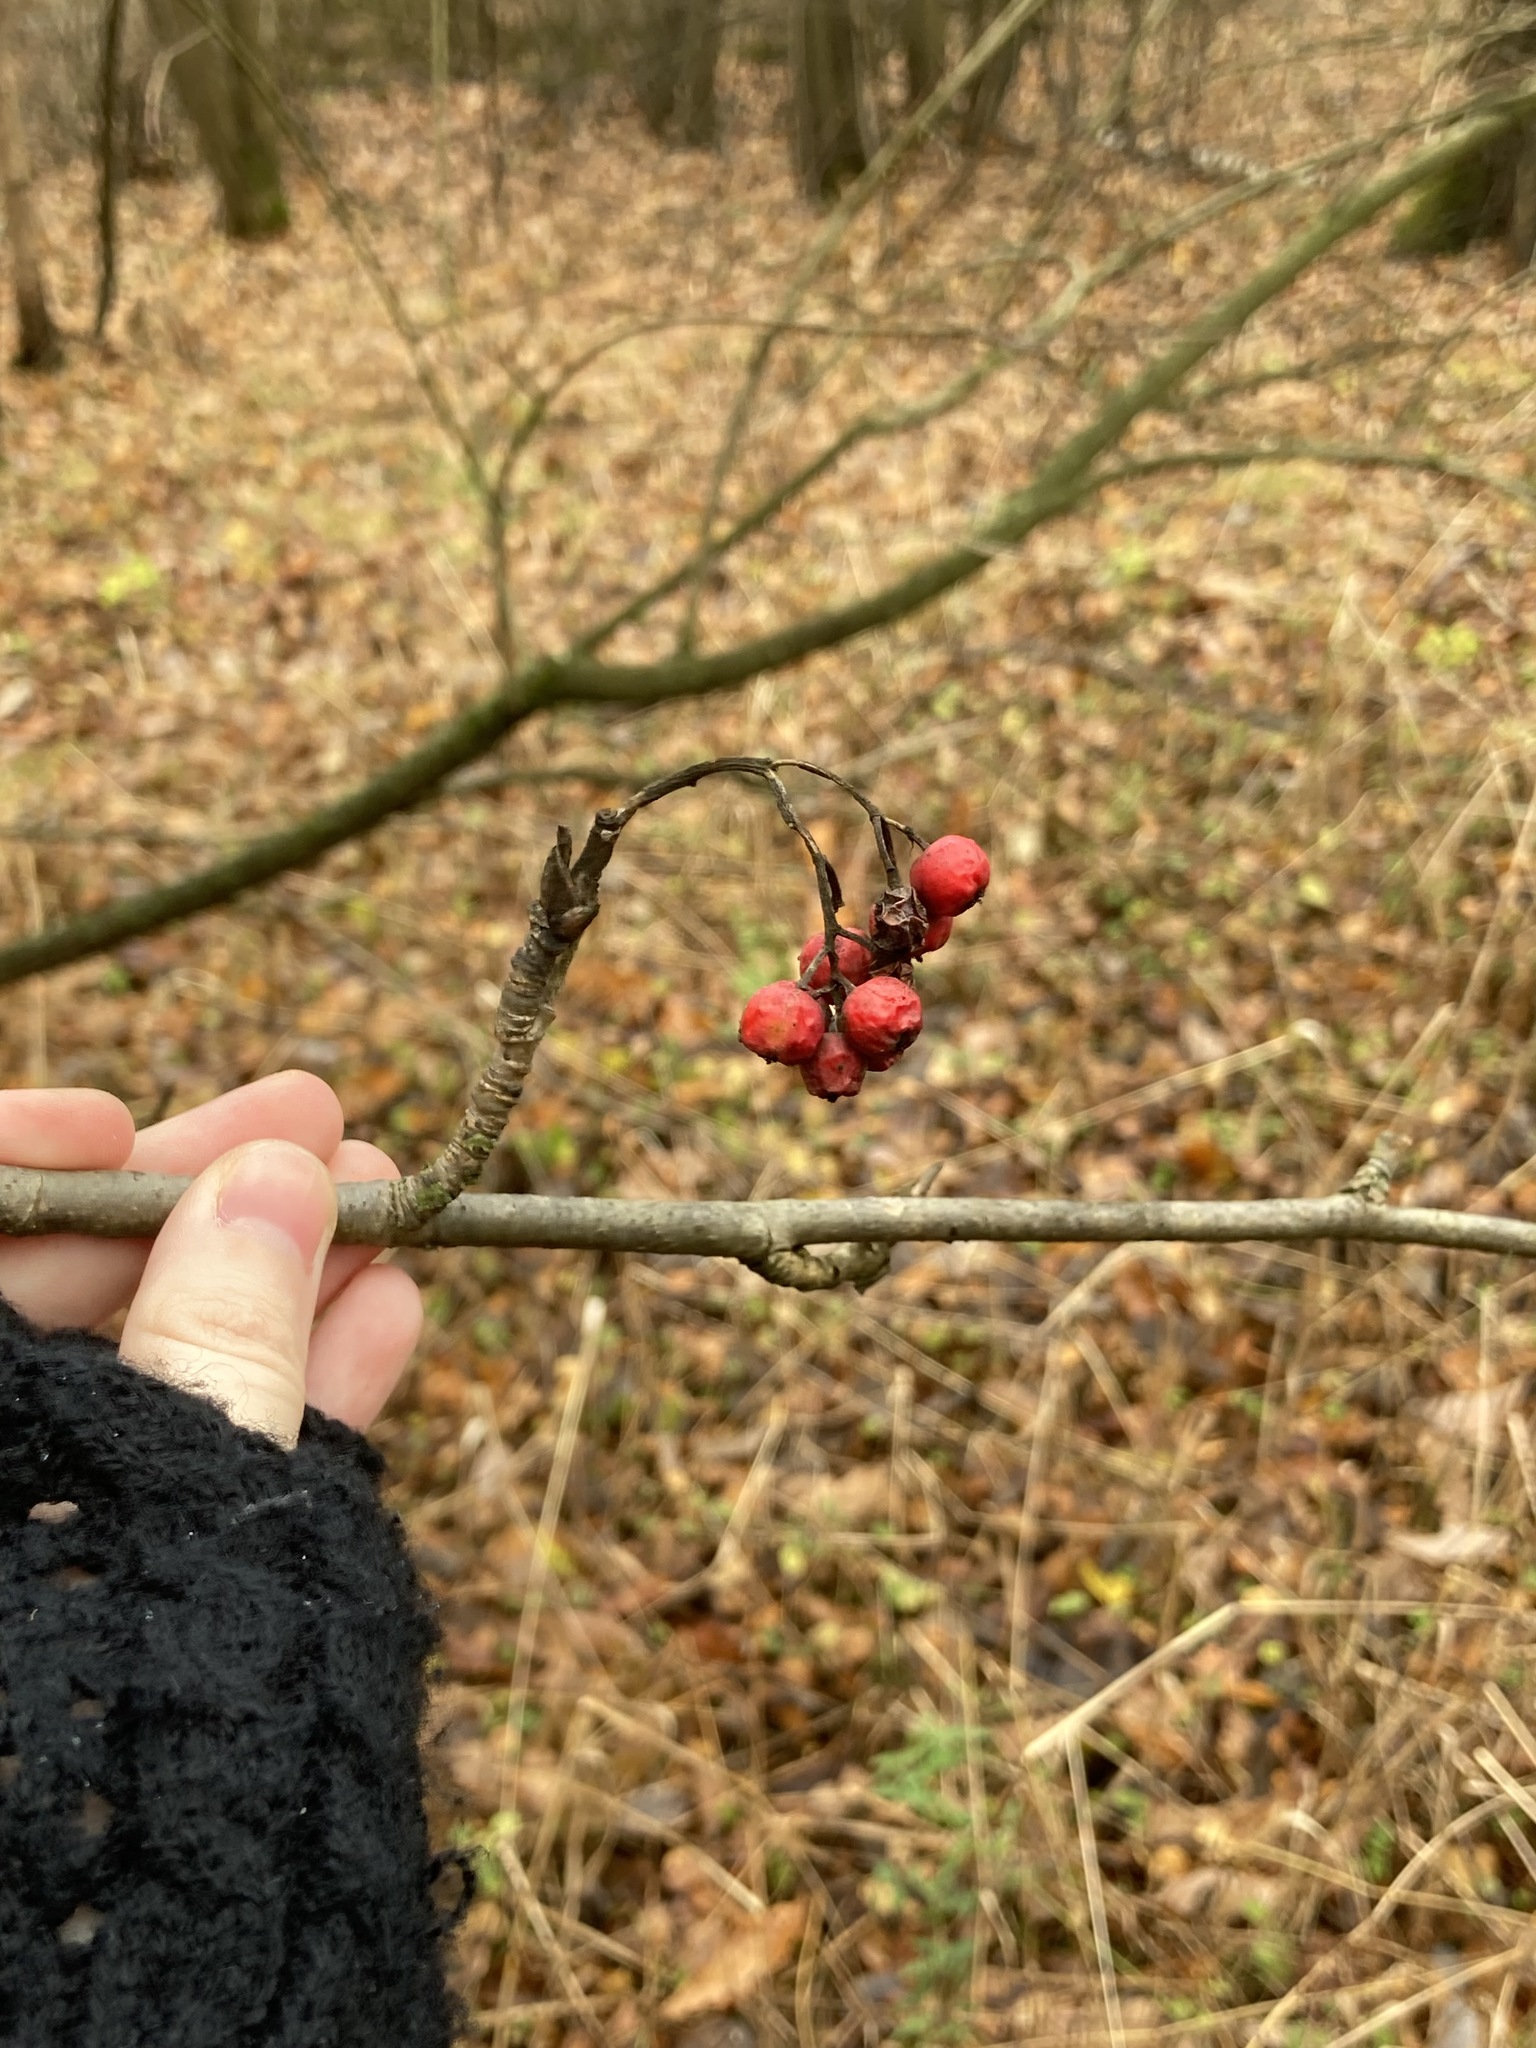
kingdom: Plantae
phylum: Tracheophyta
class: Magnoliopsida
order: Rosales
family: Rosaceae
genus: Sorbus
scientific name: Sorbus aucuparia
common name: Rowan
